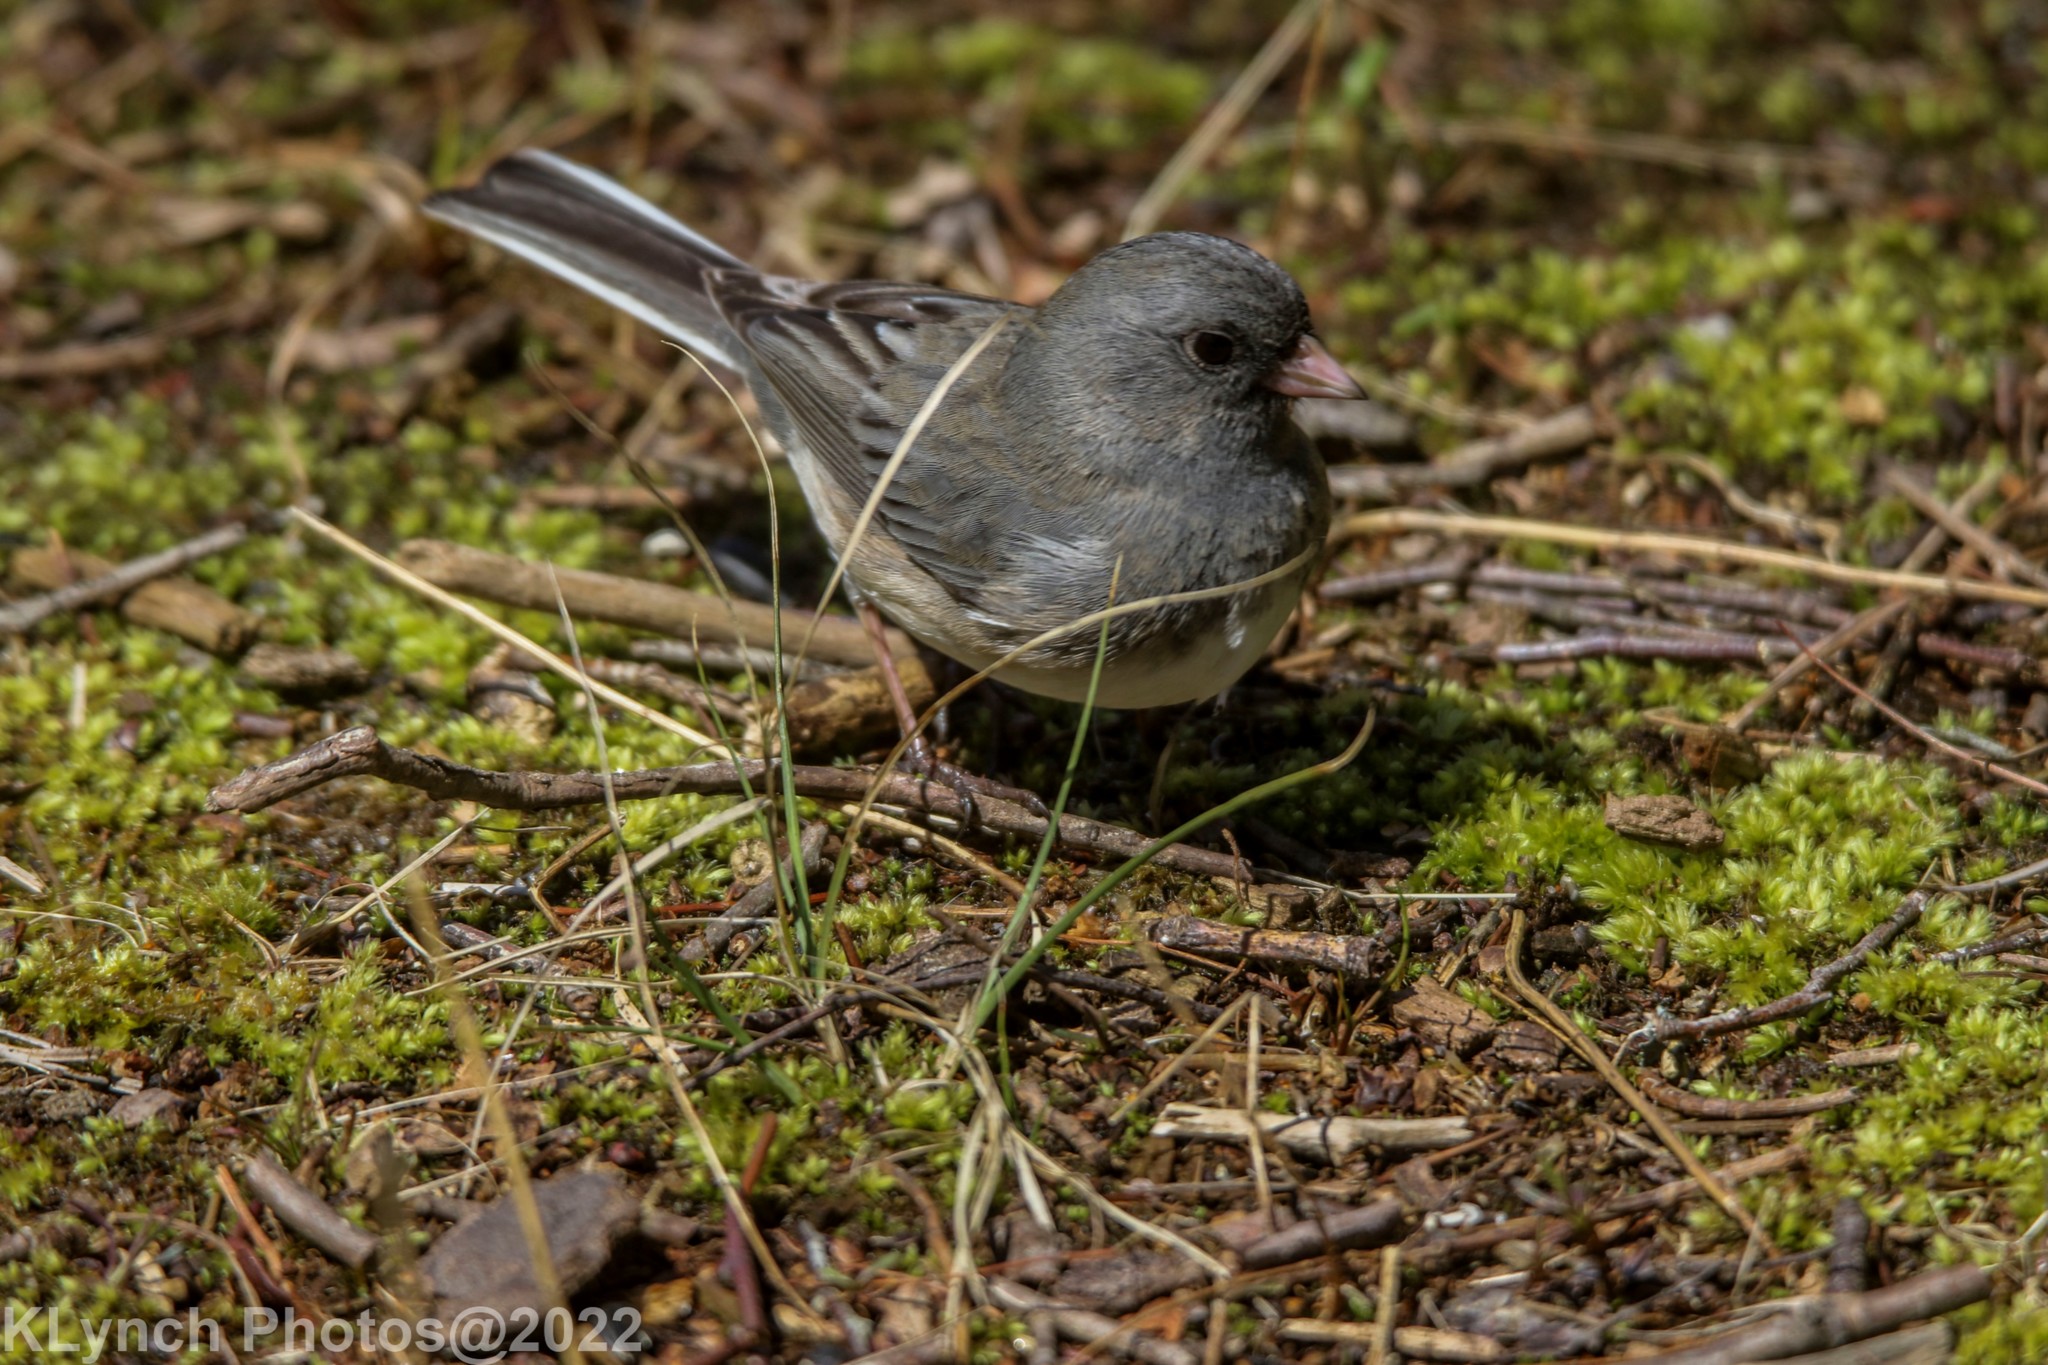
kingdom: Animalia
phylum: Chordata
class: Aves
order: Passeriformes
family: Passerellidae
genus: Junco
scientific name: Junco hyemalis
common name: Dark-eyed junco
